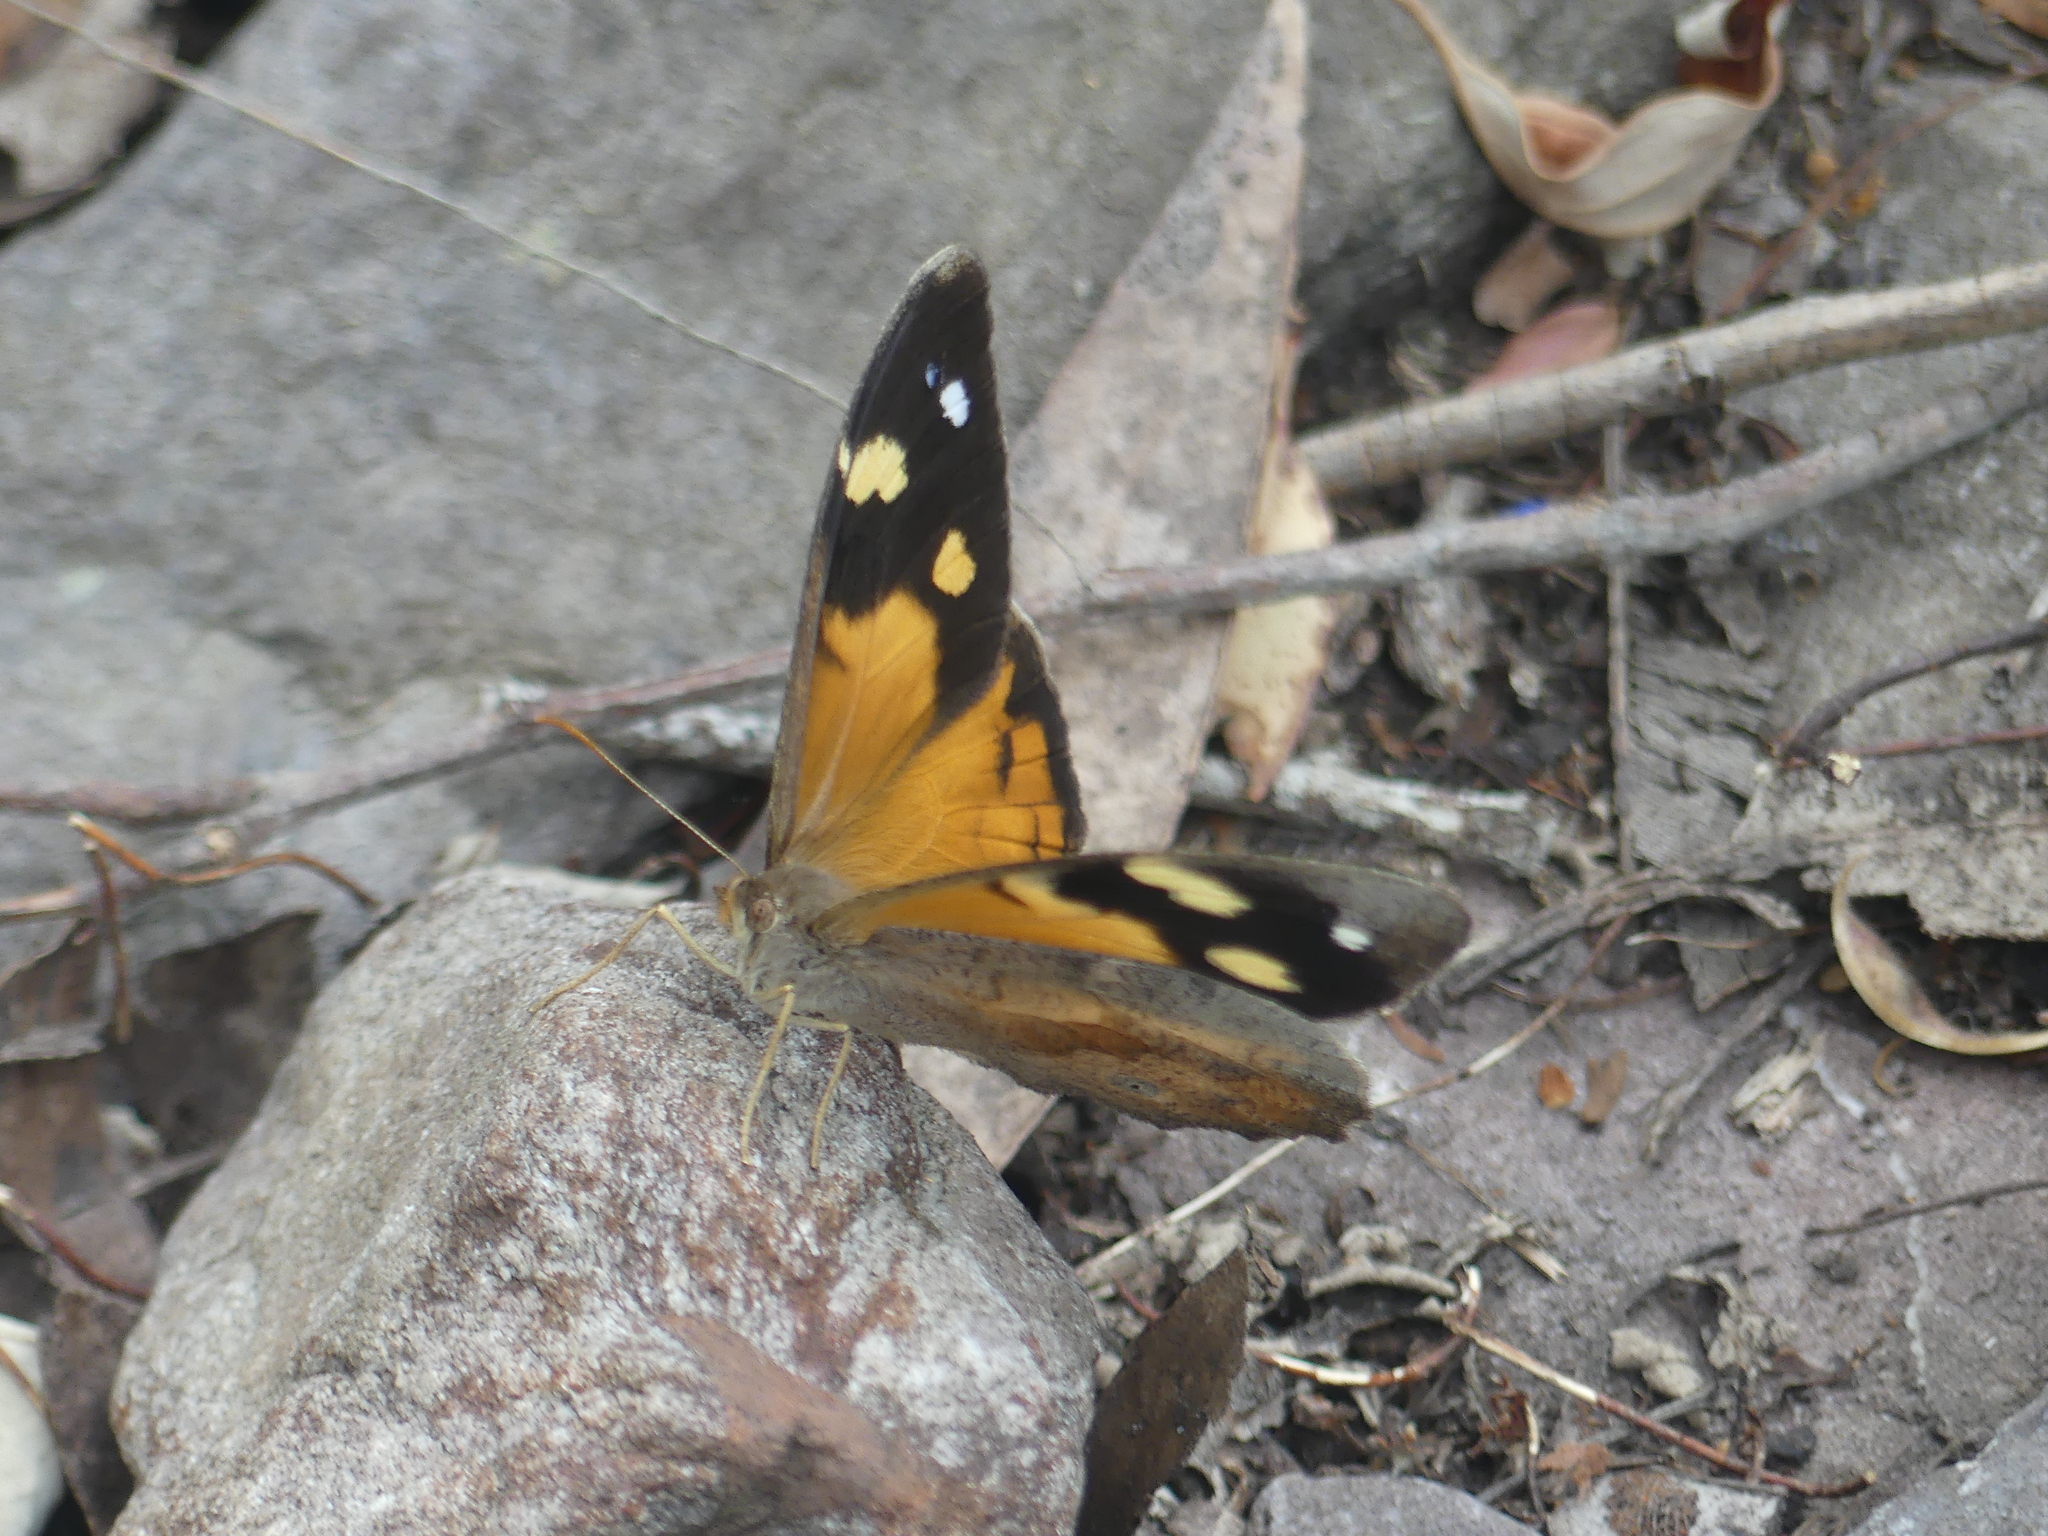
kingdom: Animalia
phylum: Arthropoda
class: Insecta
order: Lepidoptera
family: Nymphalidae
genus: Heteronympha
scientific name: Heteronympha merope
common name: Common brown
